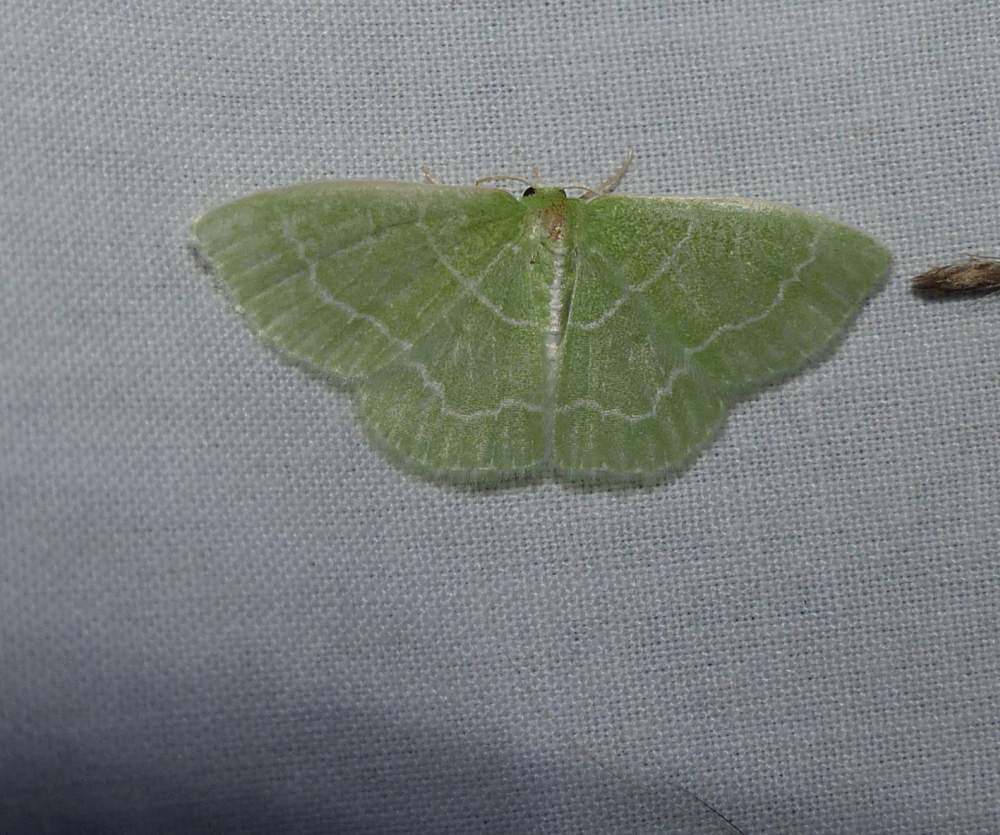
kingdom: Animalia
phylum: Arthropoda
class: Insecta
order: Lepidoptera
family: Geometridae
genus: Synchlora
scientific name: Synchlora aerata
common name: Wavy-lined emerald
